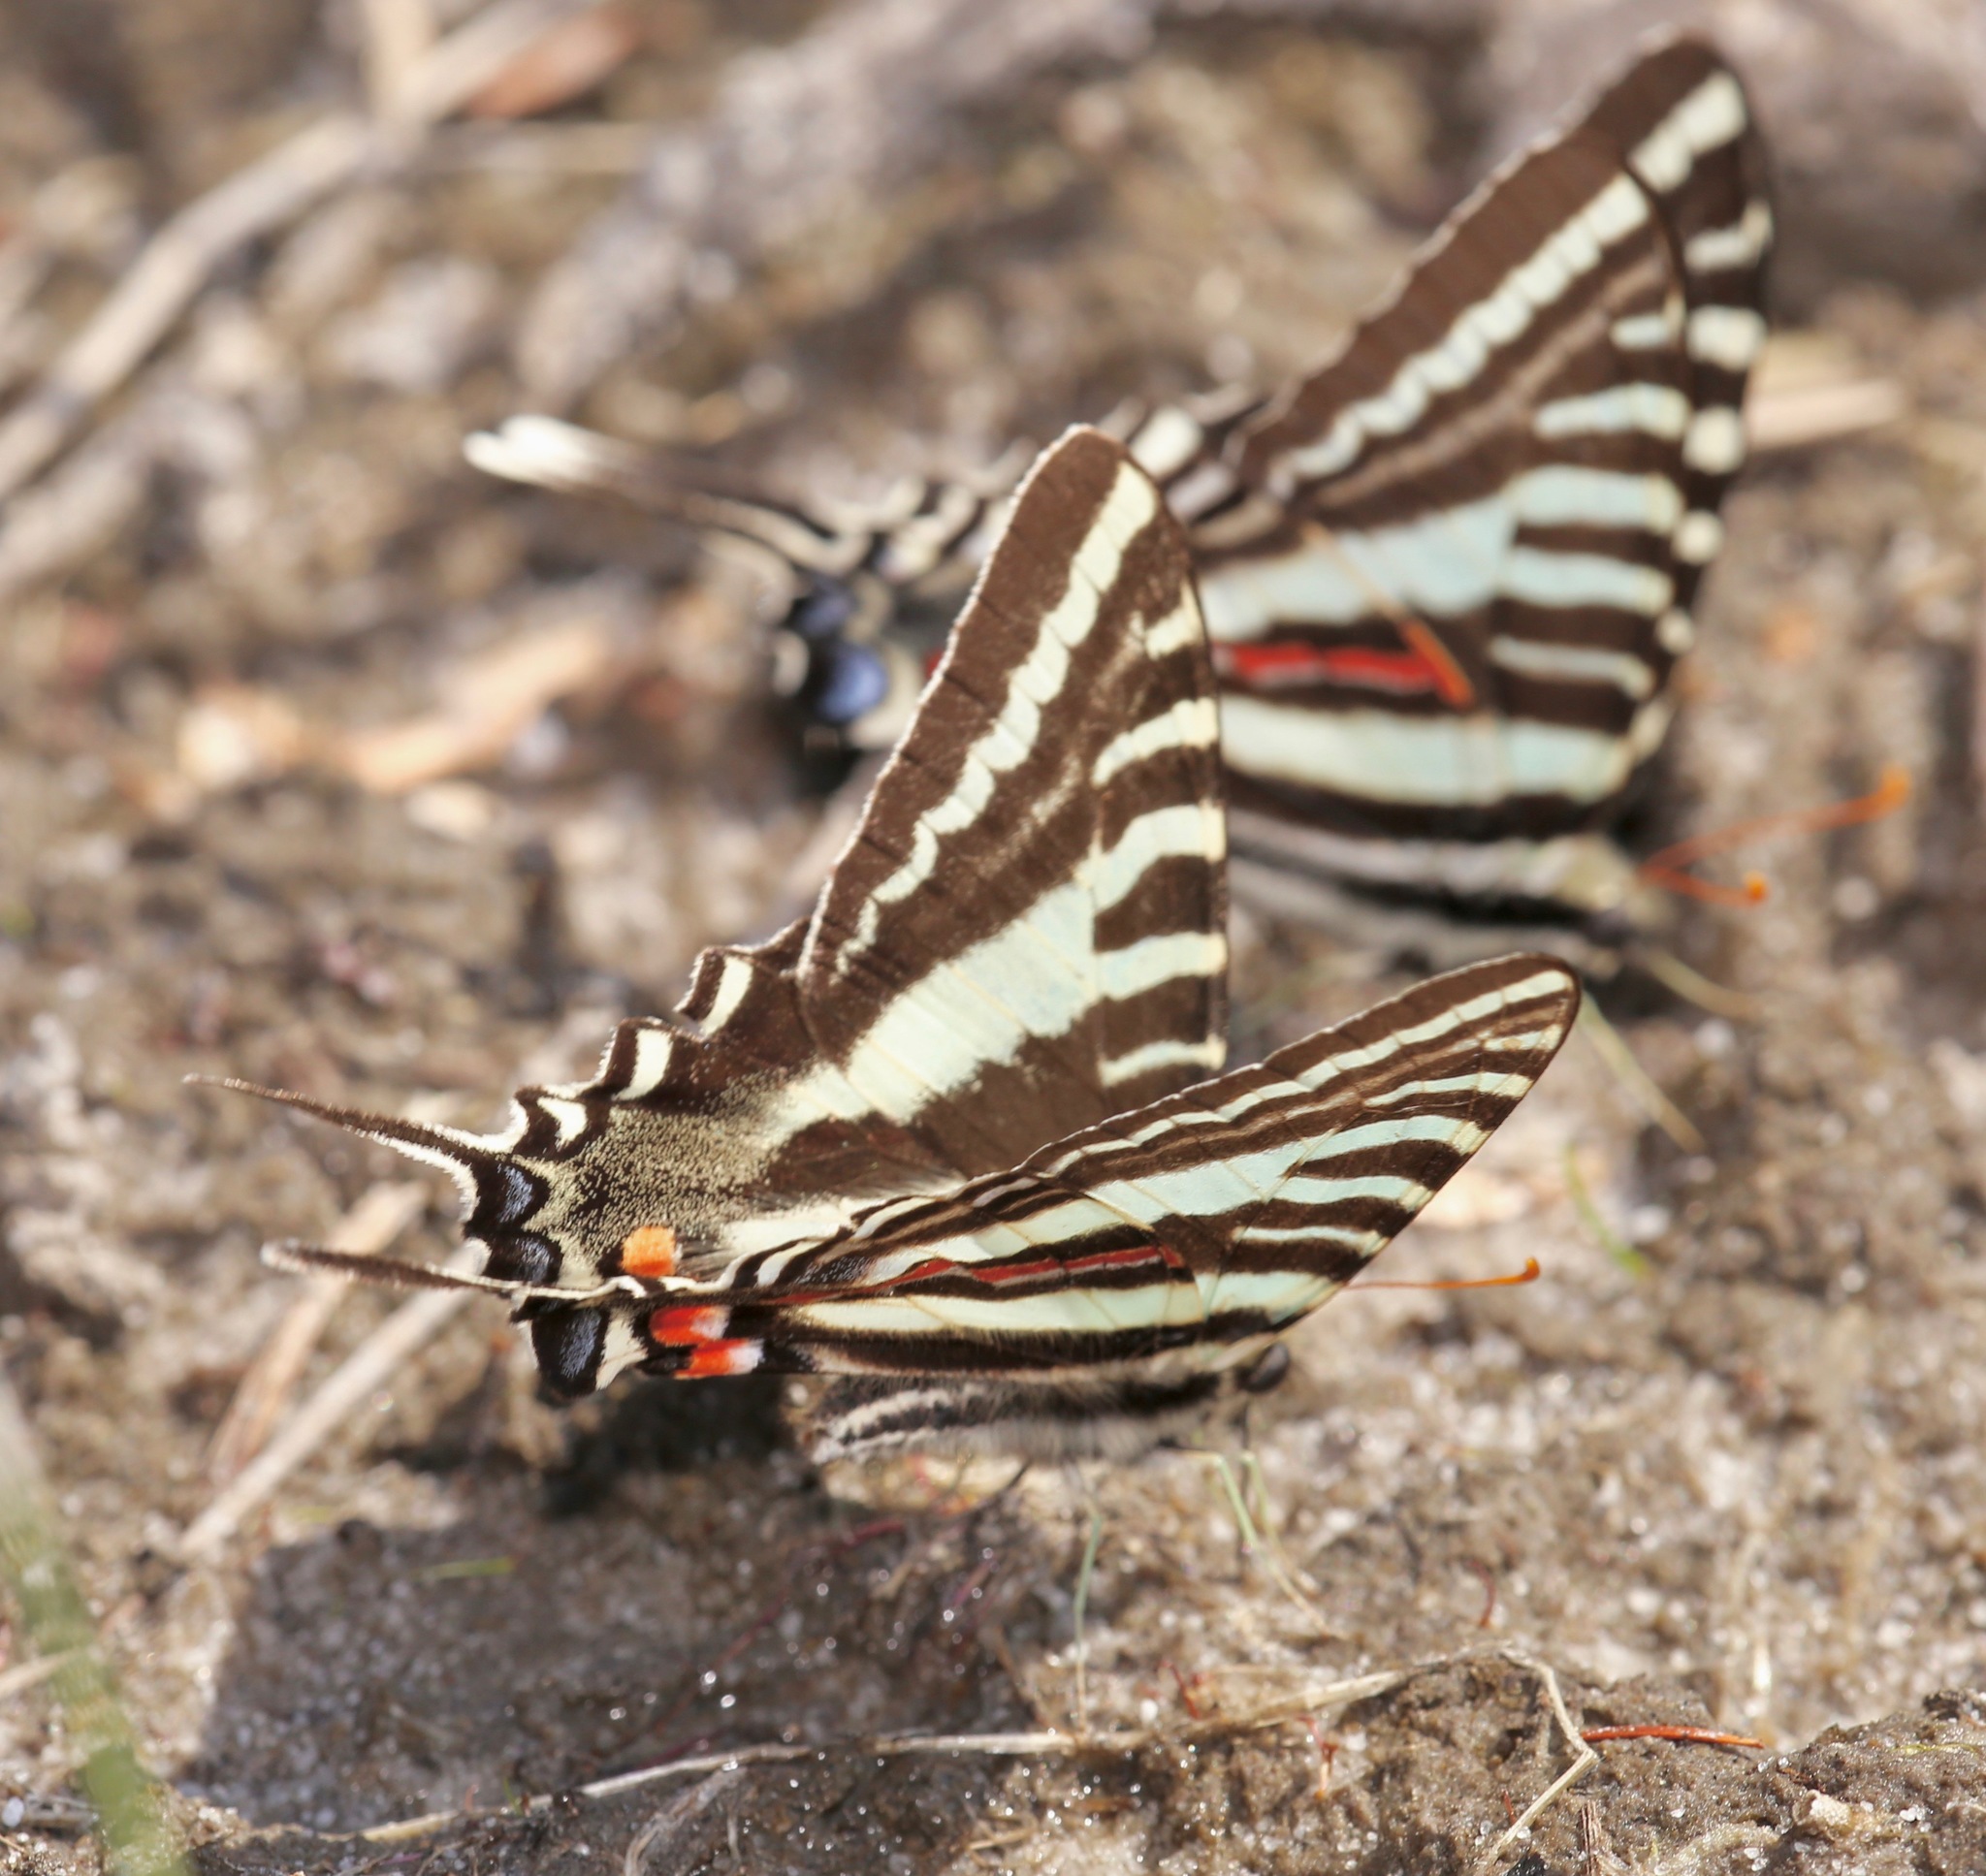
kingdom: Animalia
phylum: Arthropoda
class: Insecta
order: Lepidoptera
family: Papilionidae
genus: Protographium
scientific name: Protographium marcellus
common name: Zebra swallowtail
